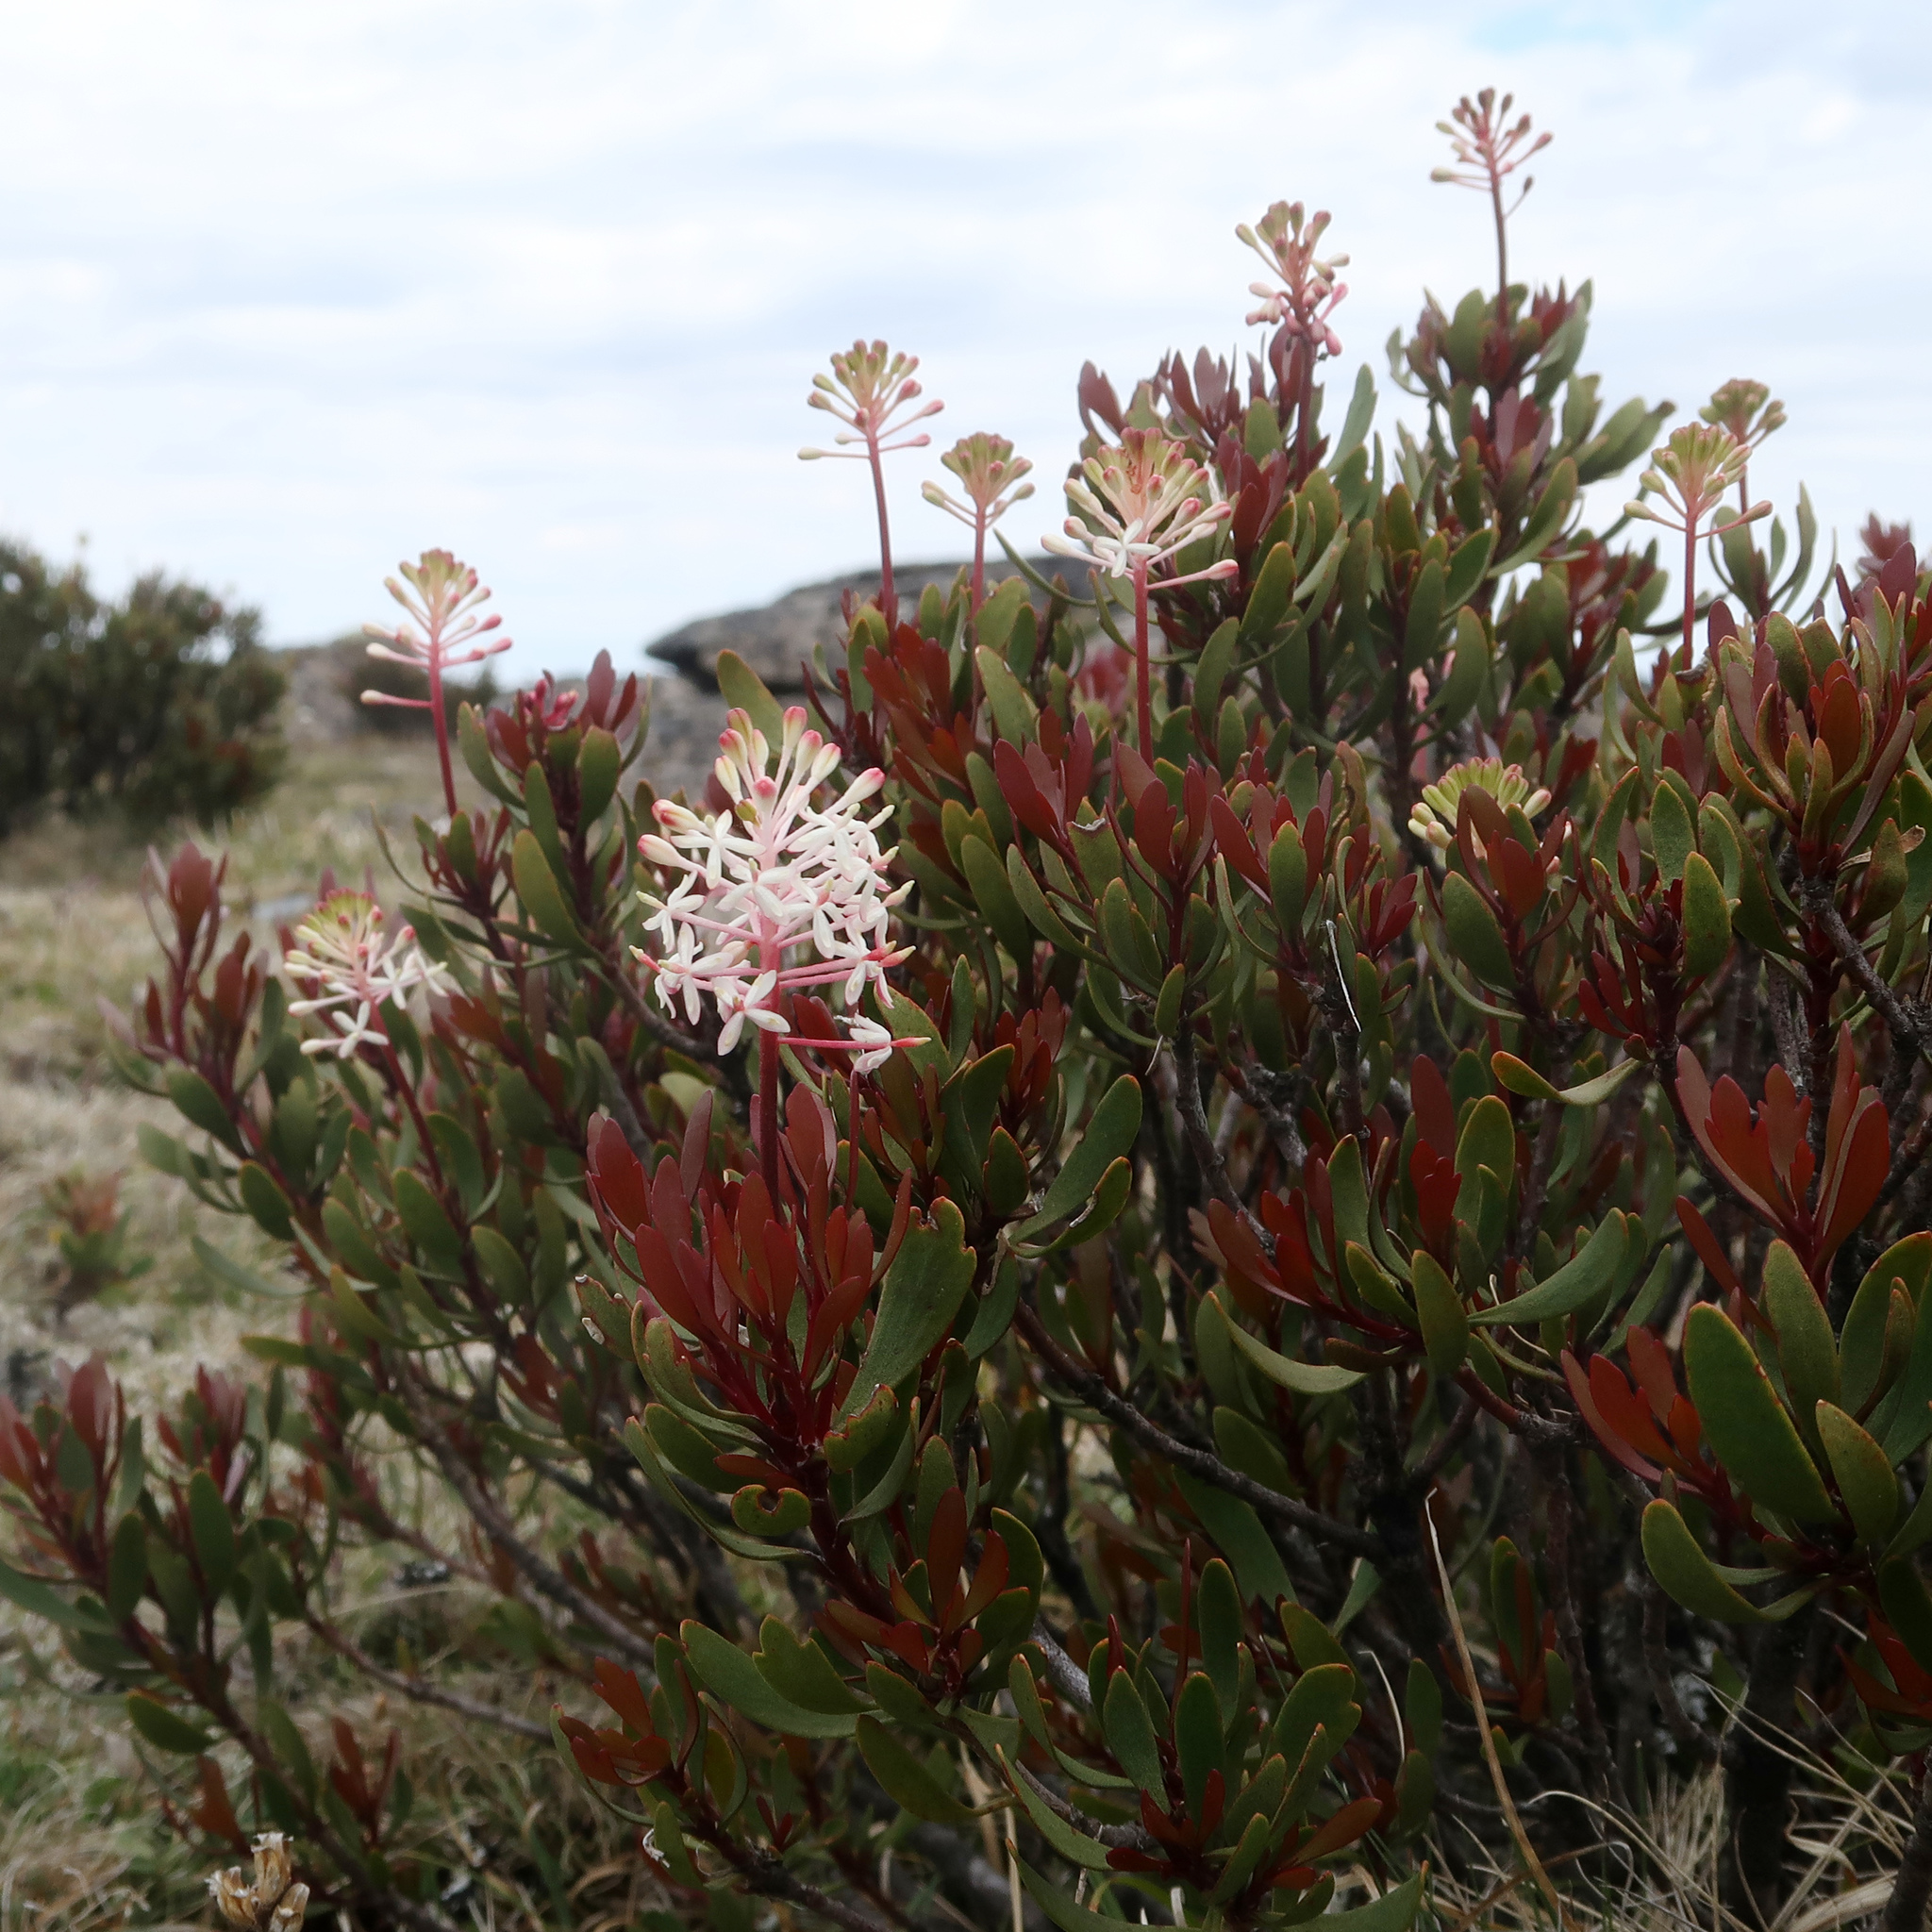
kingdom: Plantae
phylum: Tracheophyta
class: Magnoliopsida
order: Proteales
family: Proteaceae
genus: Bellendena
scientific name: Bellendena montana
